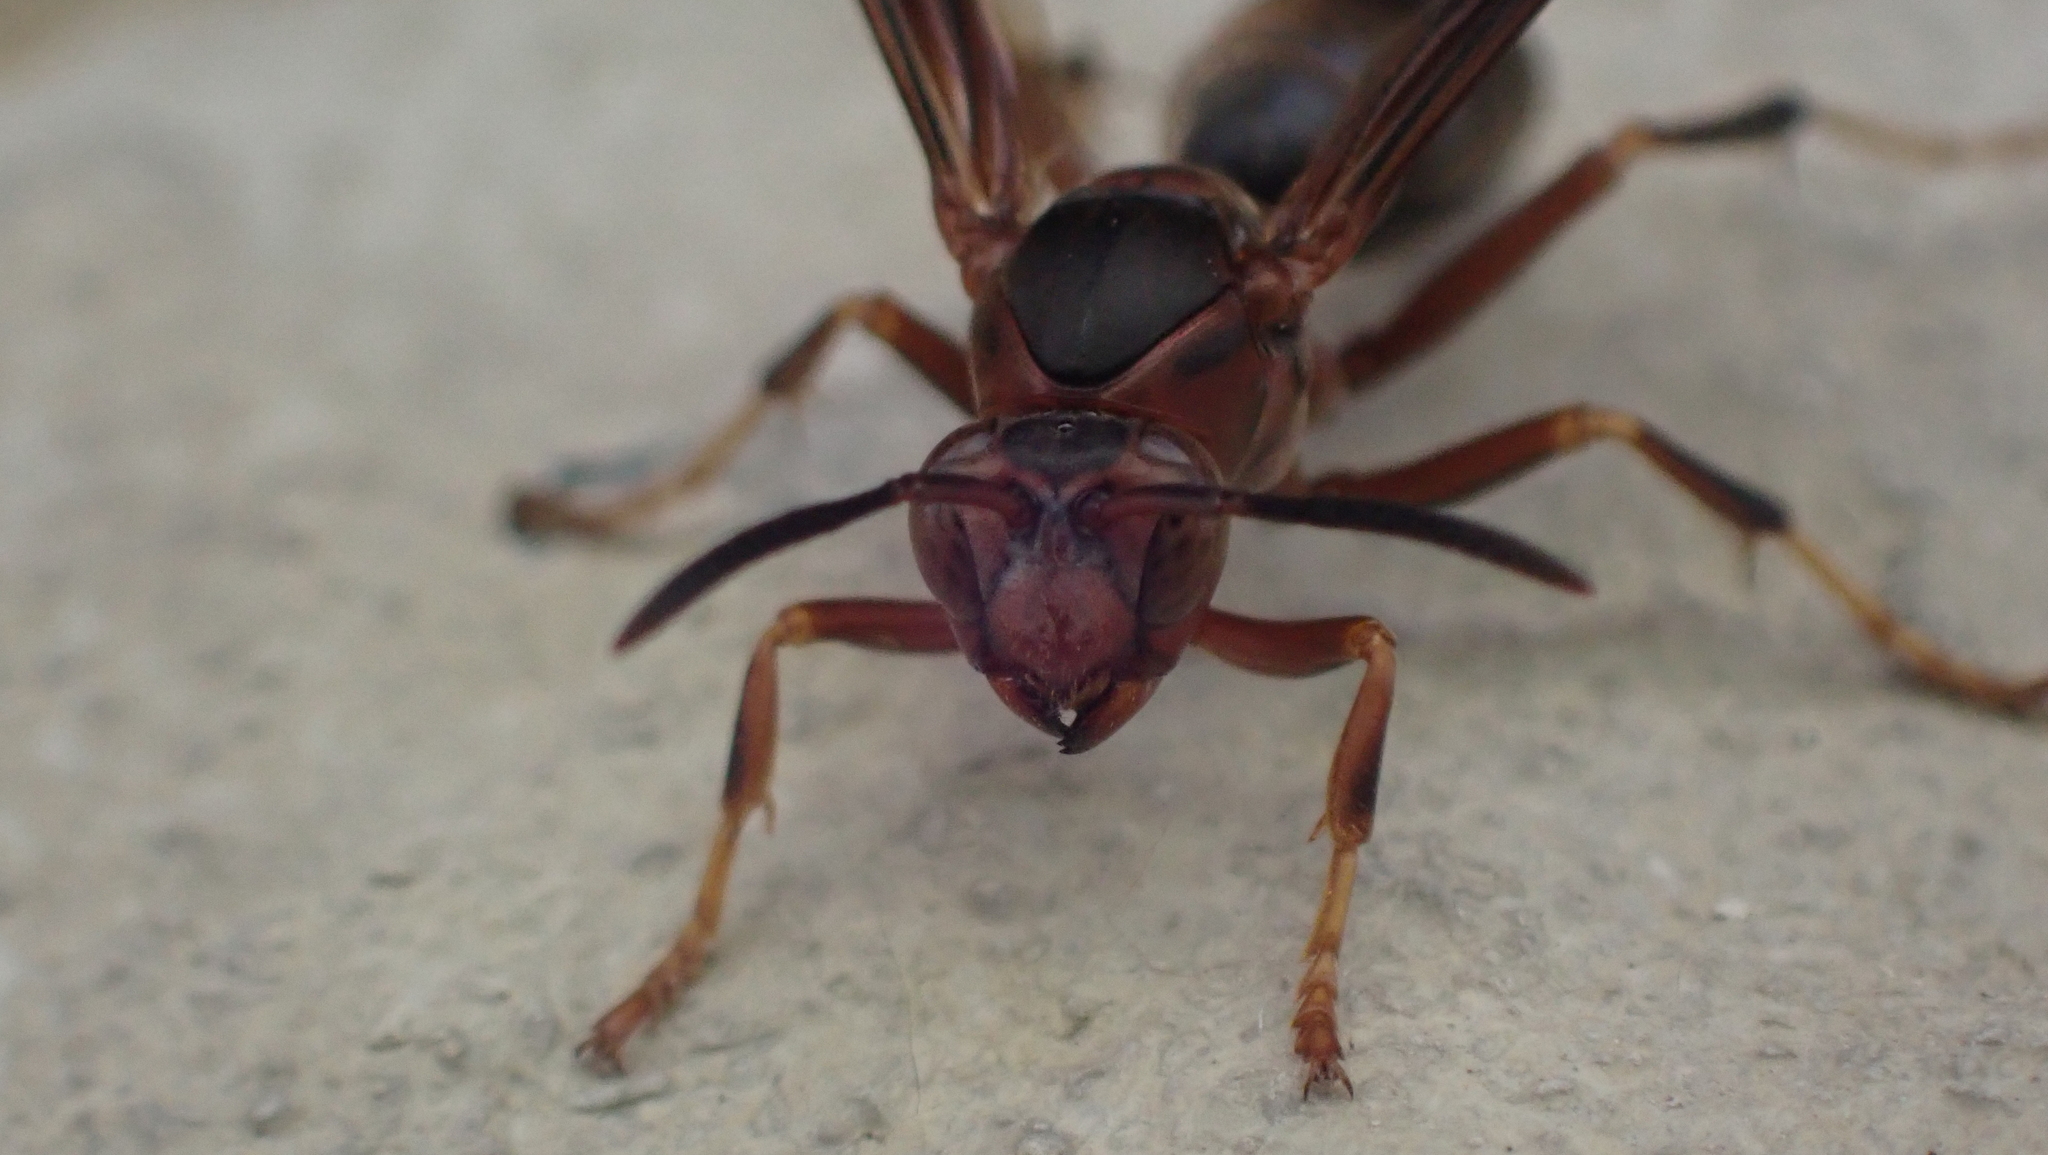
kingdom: Animalia
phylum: Arthropoda
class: Insecta
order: Hymenoptera
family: Eumenidae
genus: Polistes
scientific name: Polistes metricus
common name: Metric paper wasp
